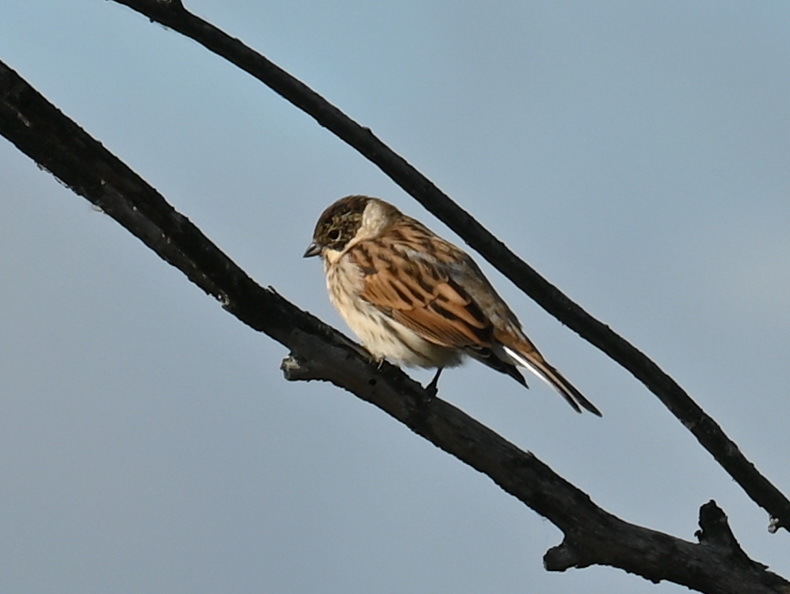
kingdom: Animalia
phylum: Chordata
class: Aves
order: Passeriformes
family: Emberizidae
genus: Emberiza
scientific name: Emberiza schoeniclus
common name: Reed bunting
